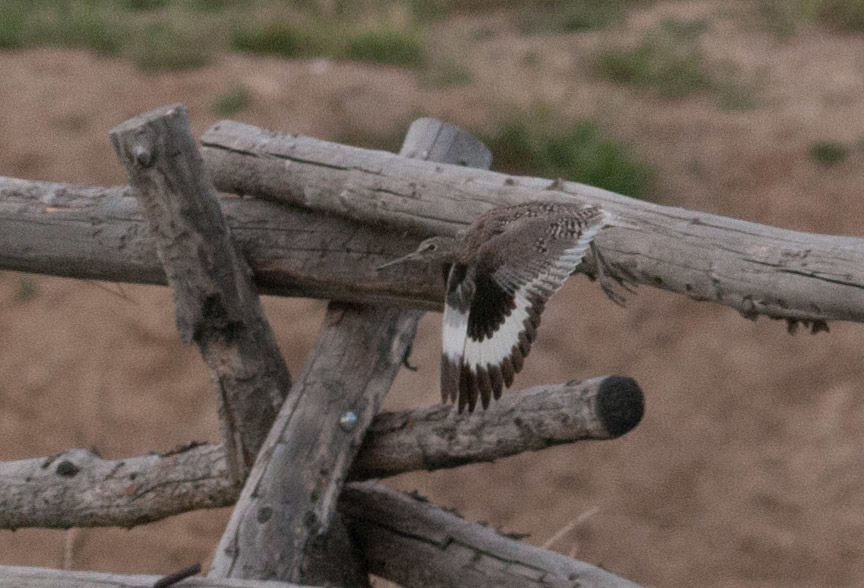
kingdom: Animalia
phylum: Chordata
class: Aves
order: Charadriiformes
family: Scolopacidae
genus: Tringa
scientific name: Tringa semipalmata
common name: Willet
